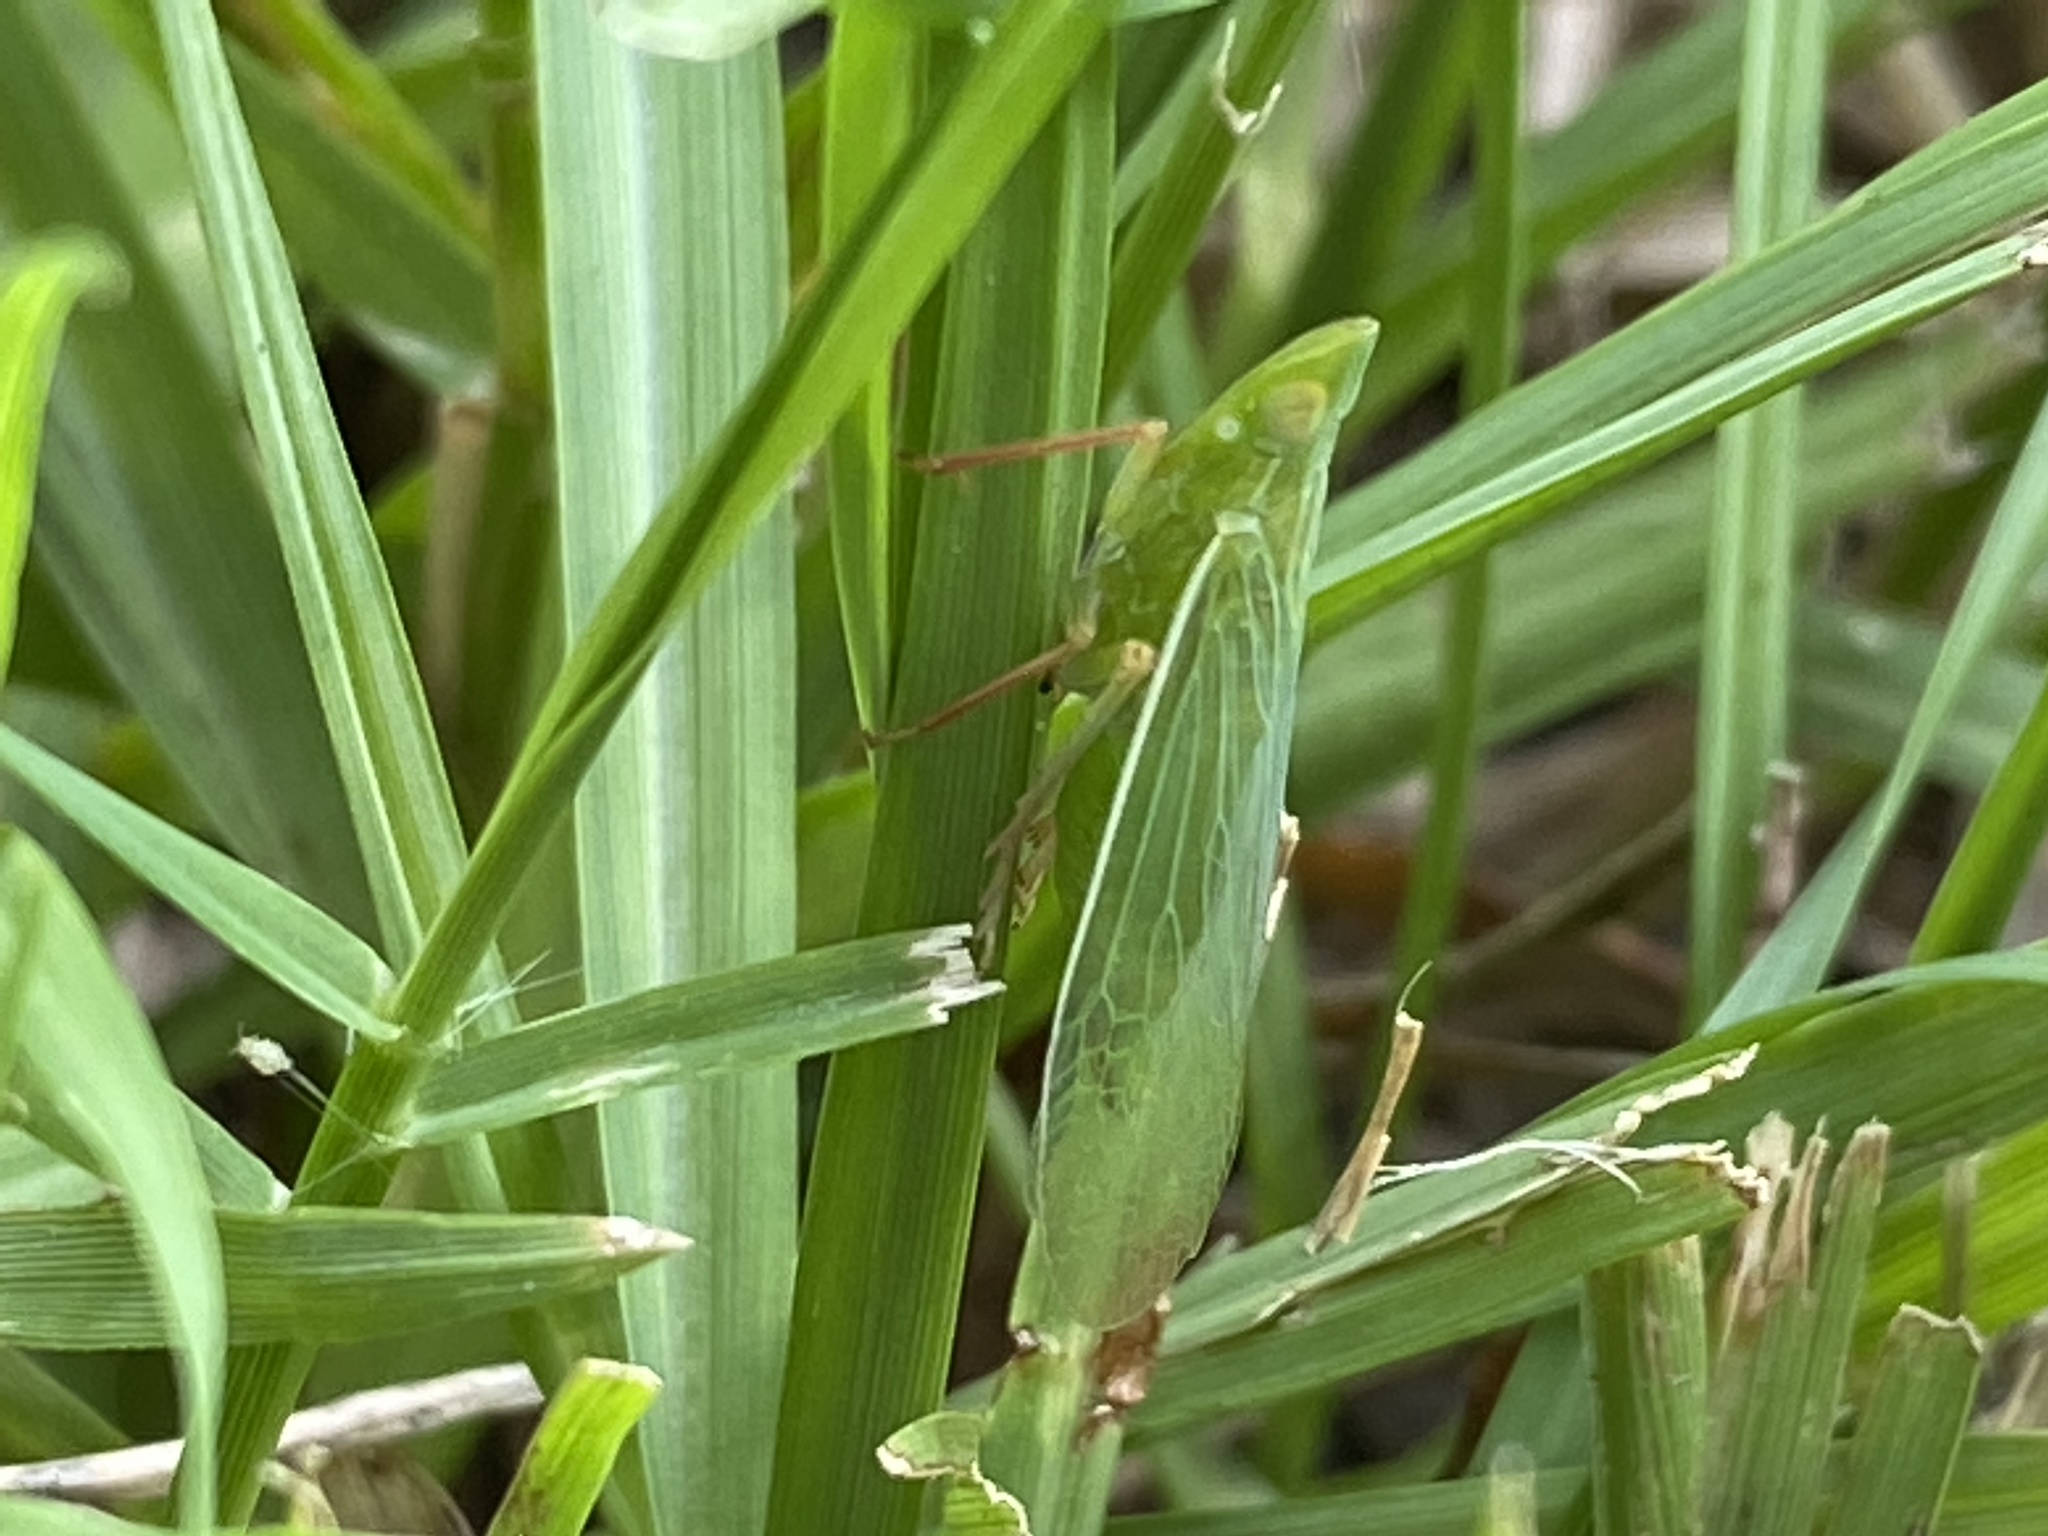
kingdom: Animalia
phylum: Arthropoda
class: Insecta
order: Hemiptera
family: Dictyopharidae
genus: Rhynchomitra
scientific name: Rhynchomitra lingula
